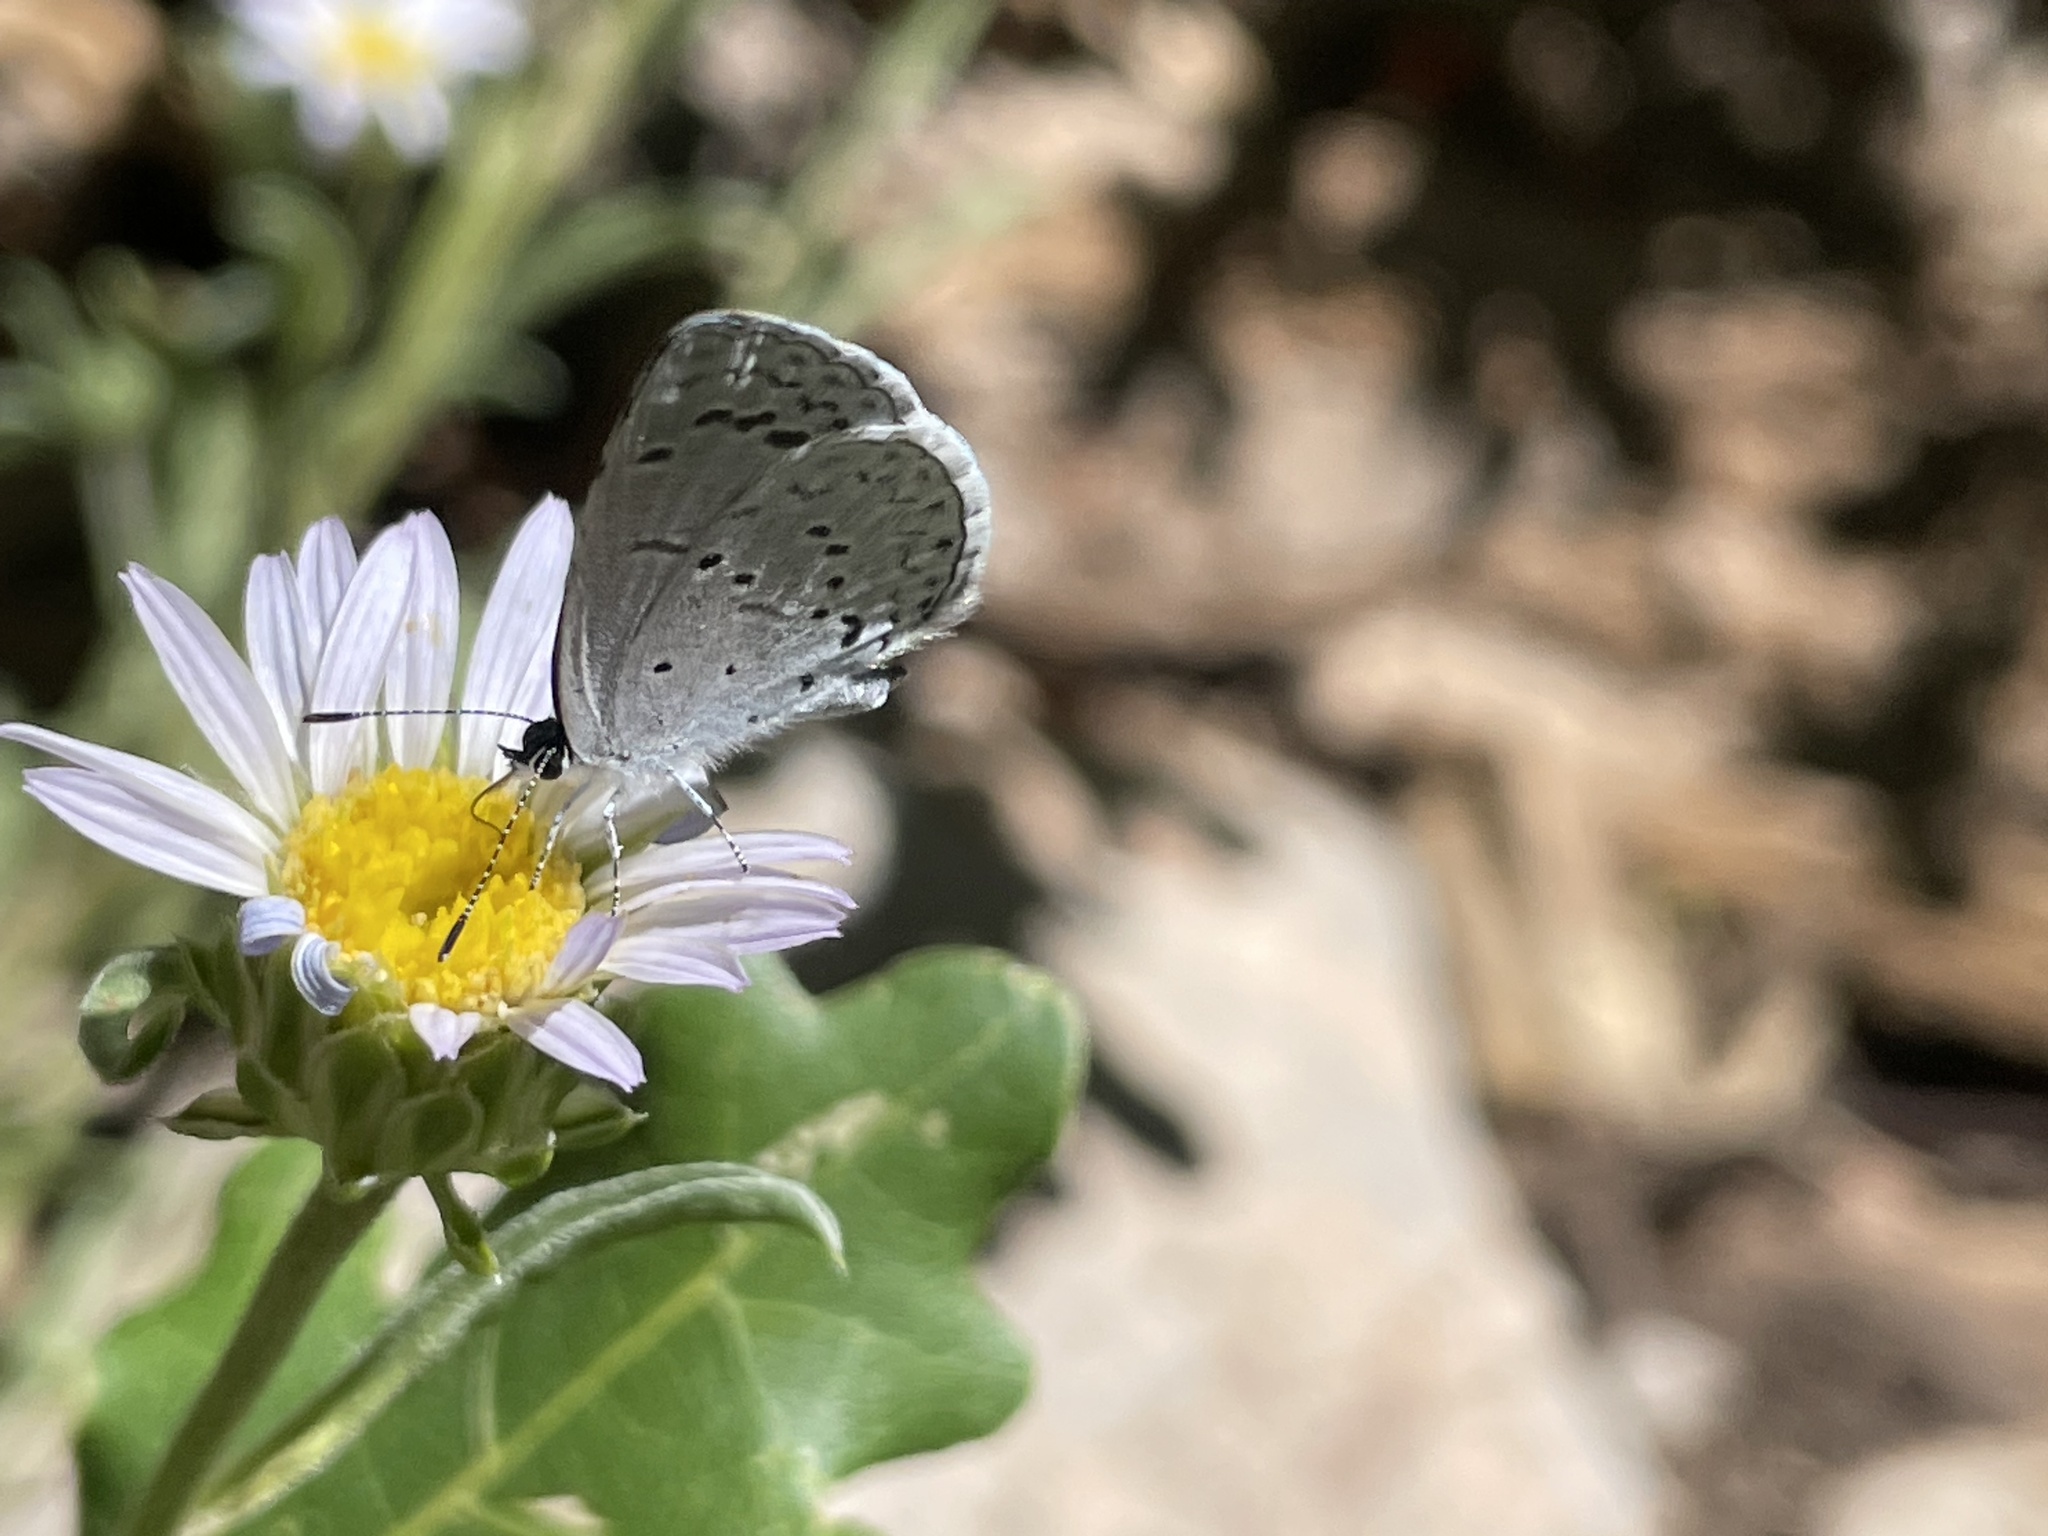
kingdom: Animalia
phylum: Arthropoda
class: Insecta
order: Lepidoptera
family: Lycaenidae
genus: Celastrina
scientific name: Celastrina ladon
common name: Spring azure
